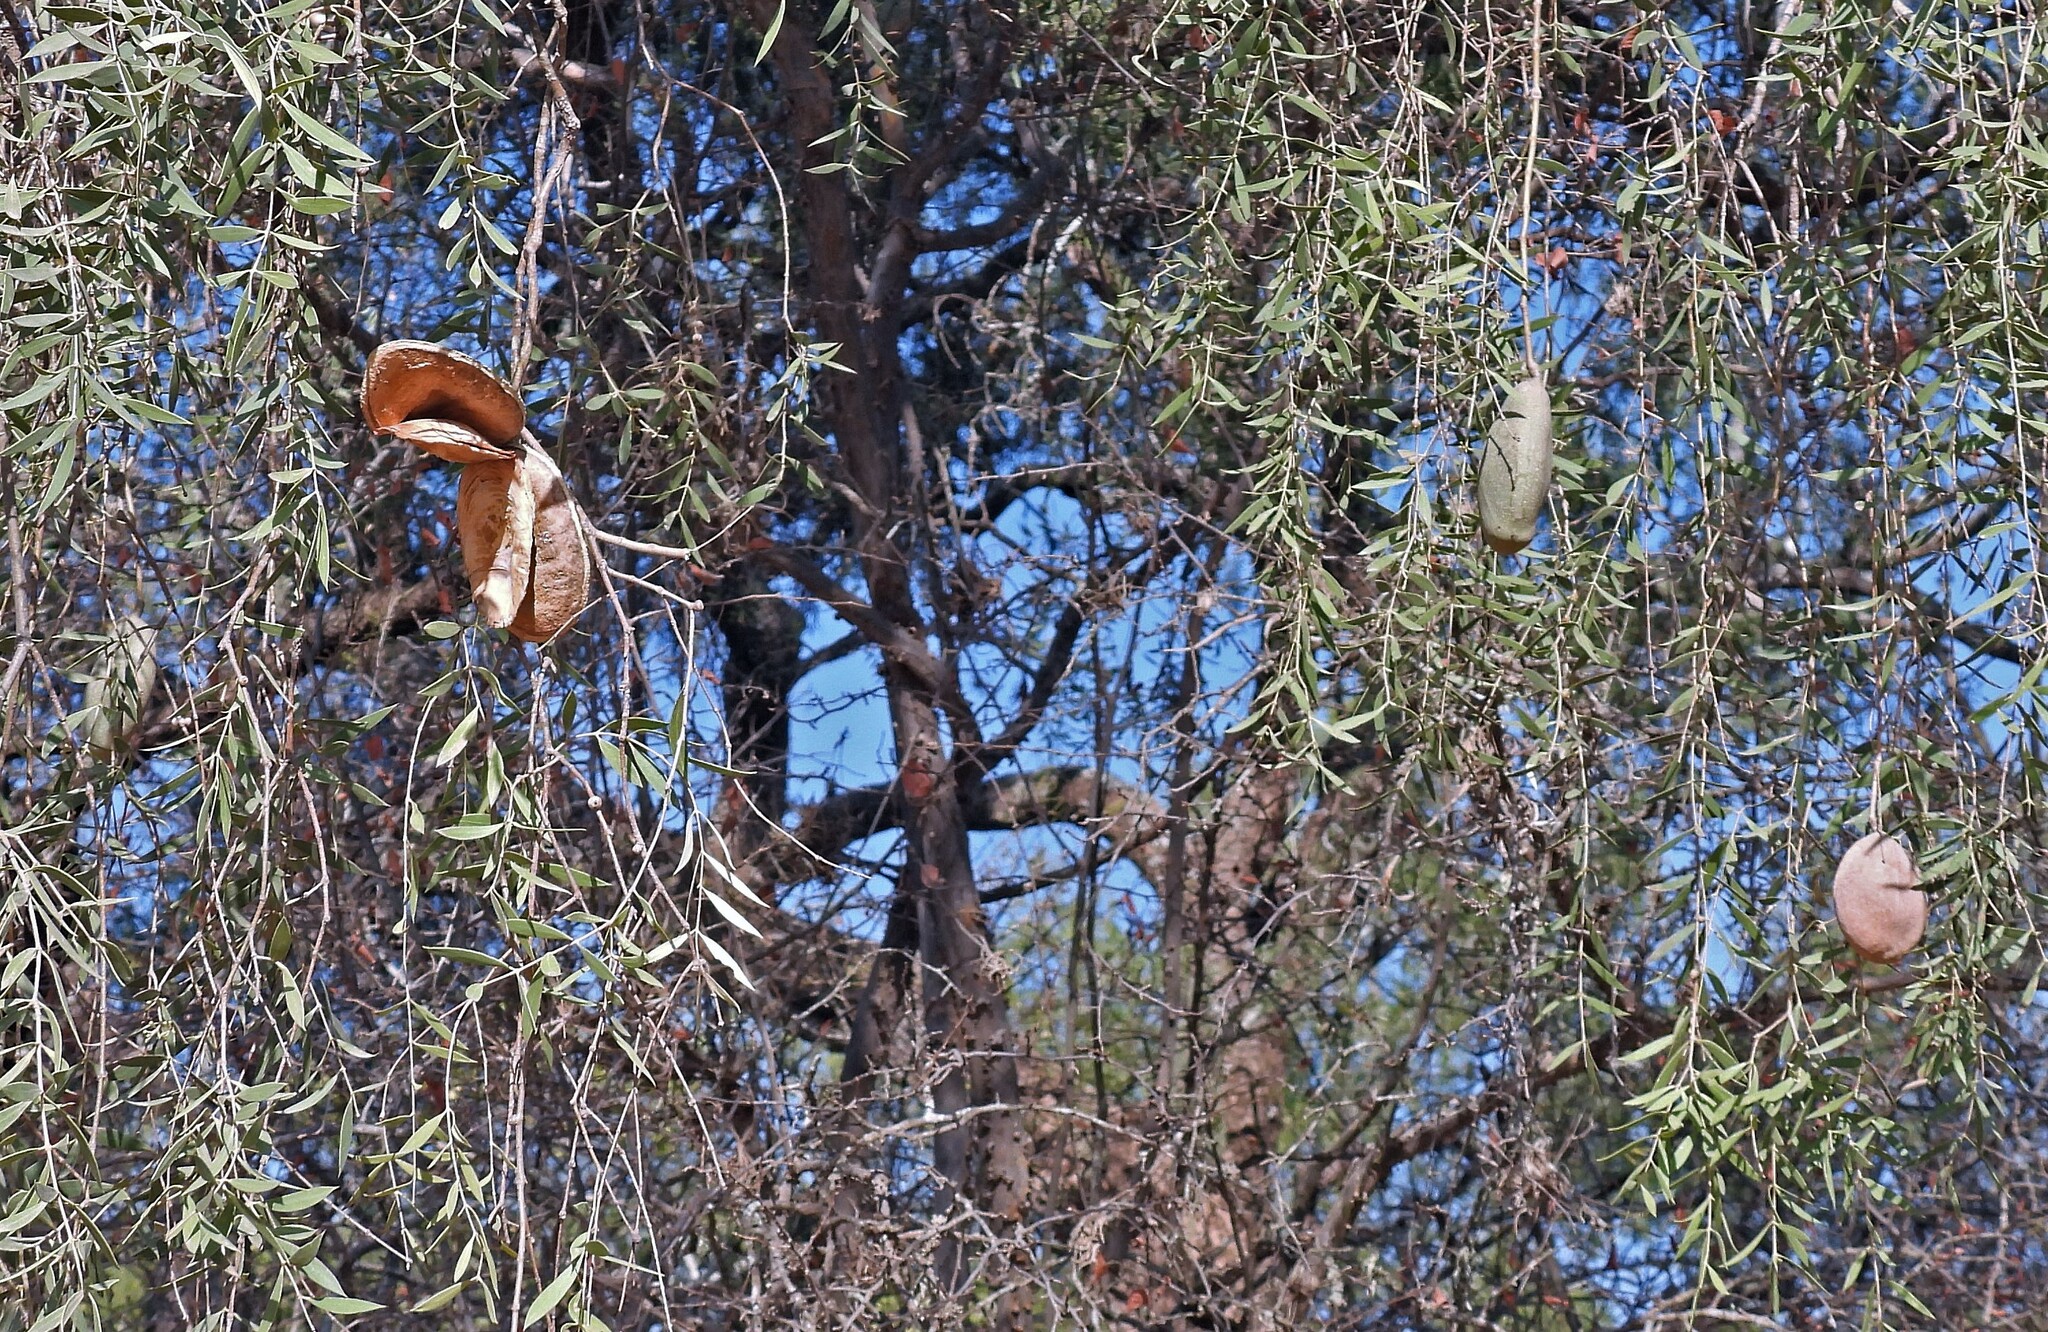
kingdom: Plantae
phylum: Tracheophyta
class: Magnoliopsida
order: Gentianales
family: Apocynaceae
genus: Aspidosperma
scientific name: Aspidosperma quebracho-blanco
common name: White quebracho
